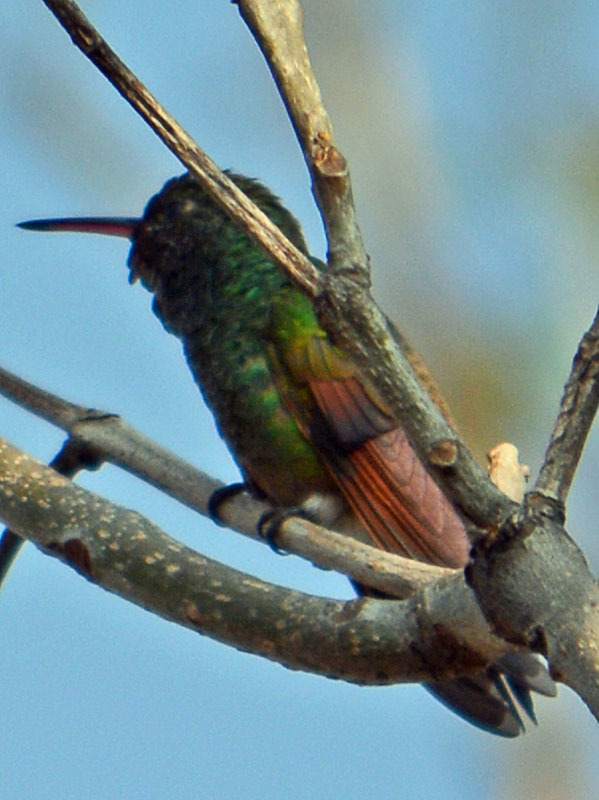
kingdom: Animalia
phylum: Chordata
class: Aves
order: Apodiformes
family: Trochilidae
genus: Saucerottia
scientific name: Saucerottia beryllina
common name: Berylline hummingbird
